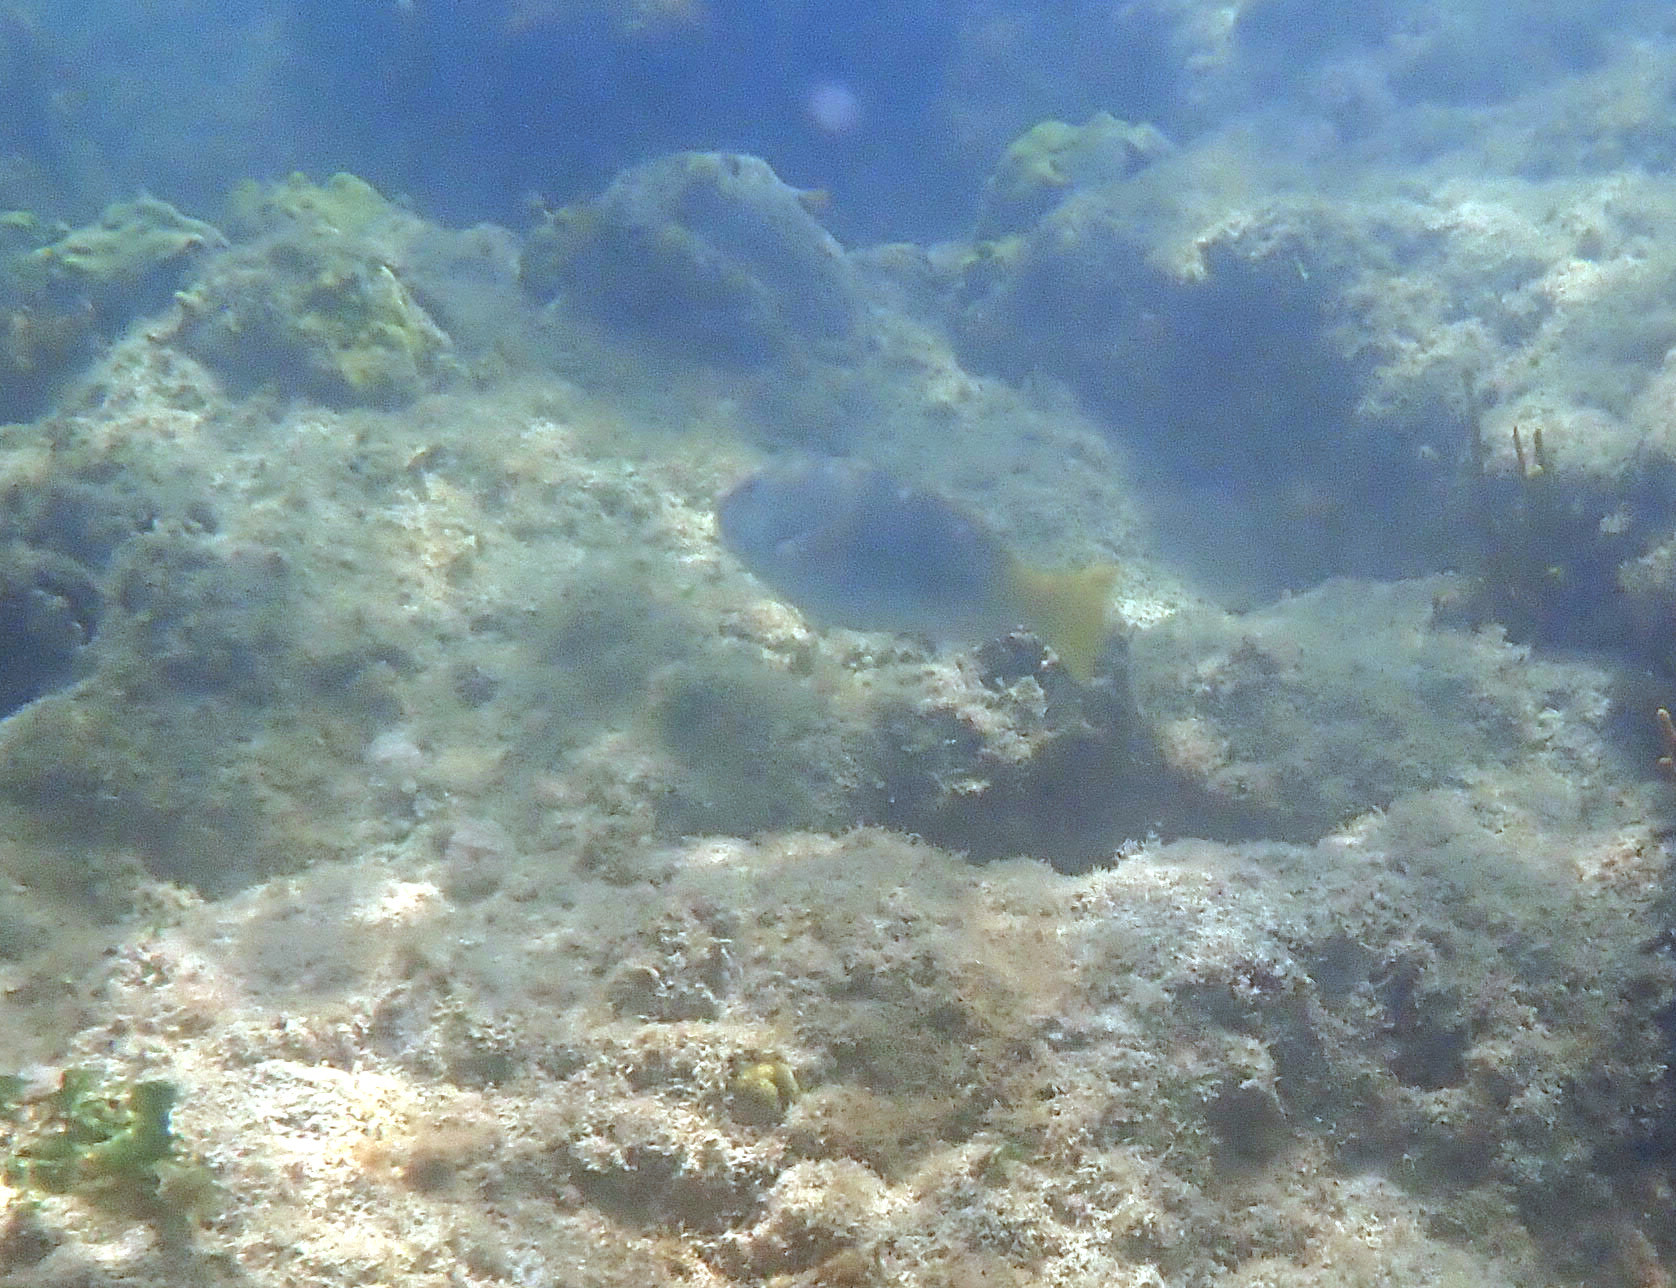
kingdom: Animalia
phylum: Chordata
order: Perciformes
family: Scaridae
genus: Sparisoma
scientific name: Sparisoma rubripinne
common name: Redfin parrotfish
